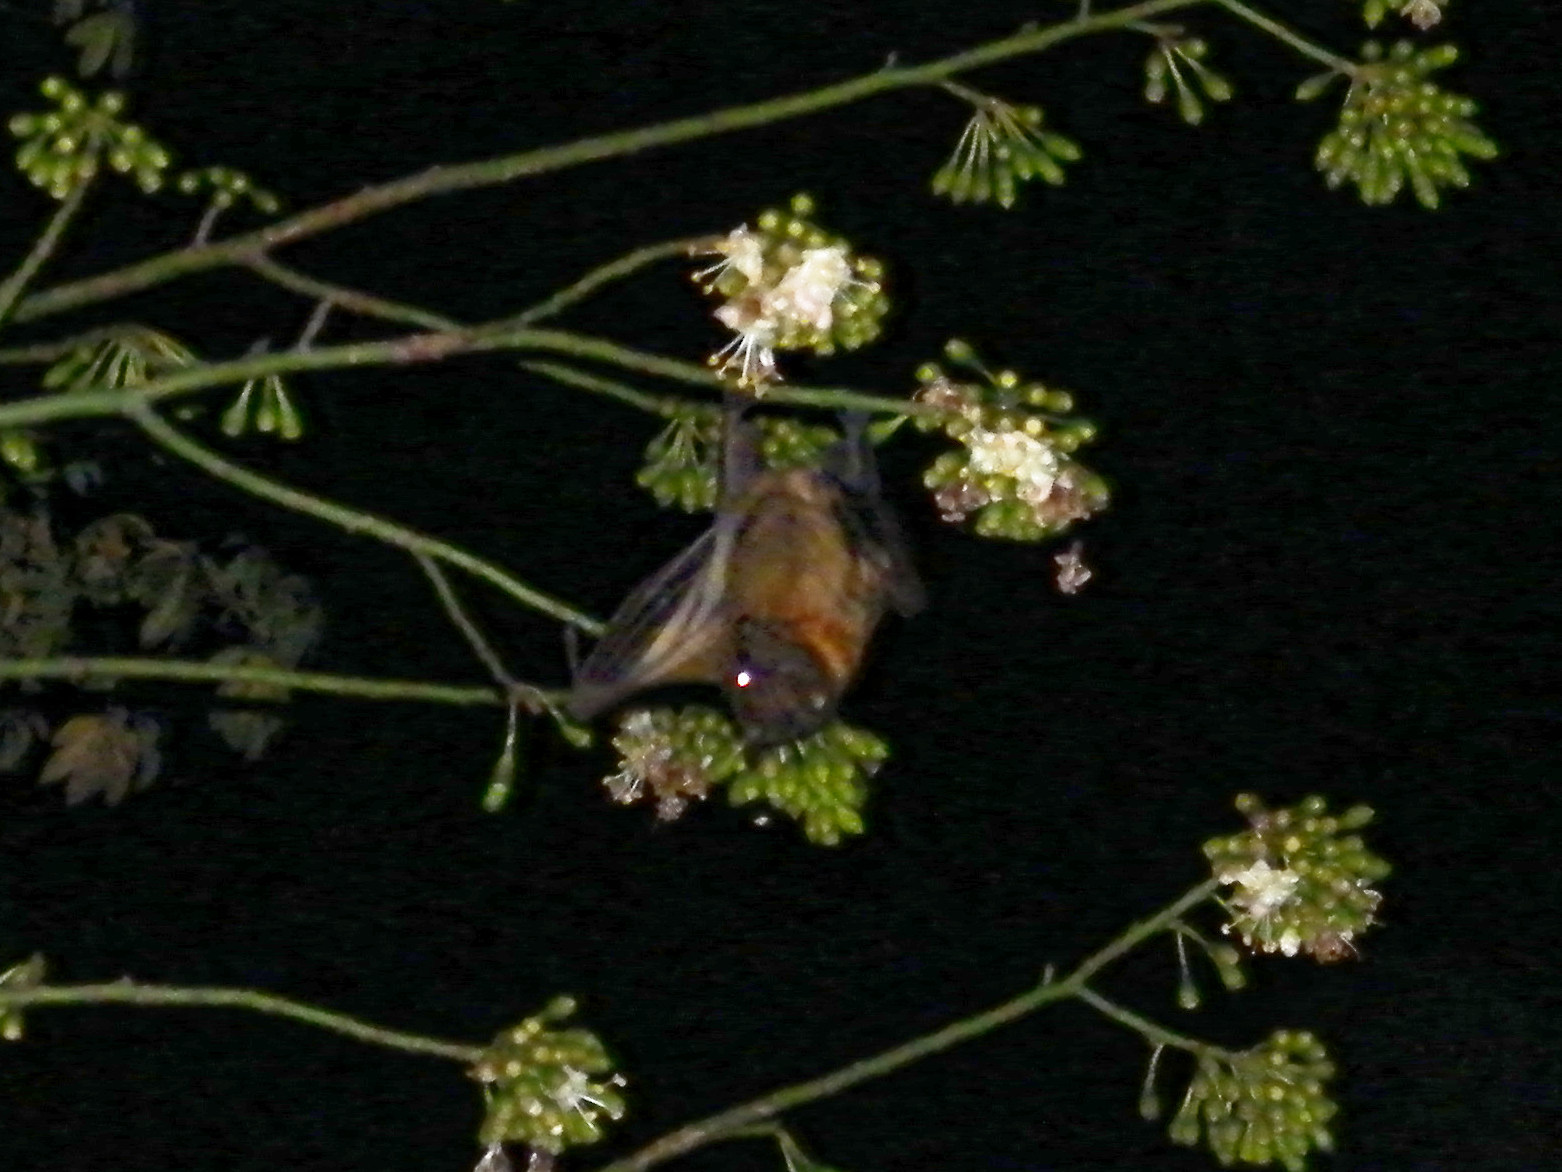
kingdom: Animalia
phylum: Chordata
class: Mammalia
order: Chiroptera
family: Pteropodidae
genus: Eidolon
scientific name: Eidolon dupreanum
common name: Madagascan fruit bat
